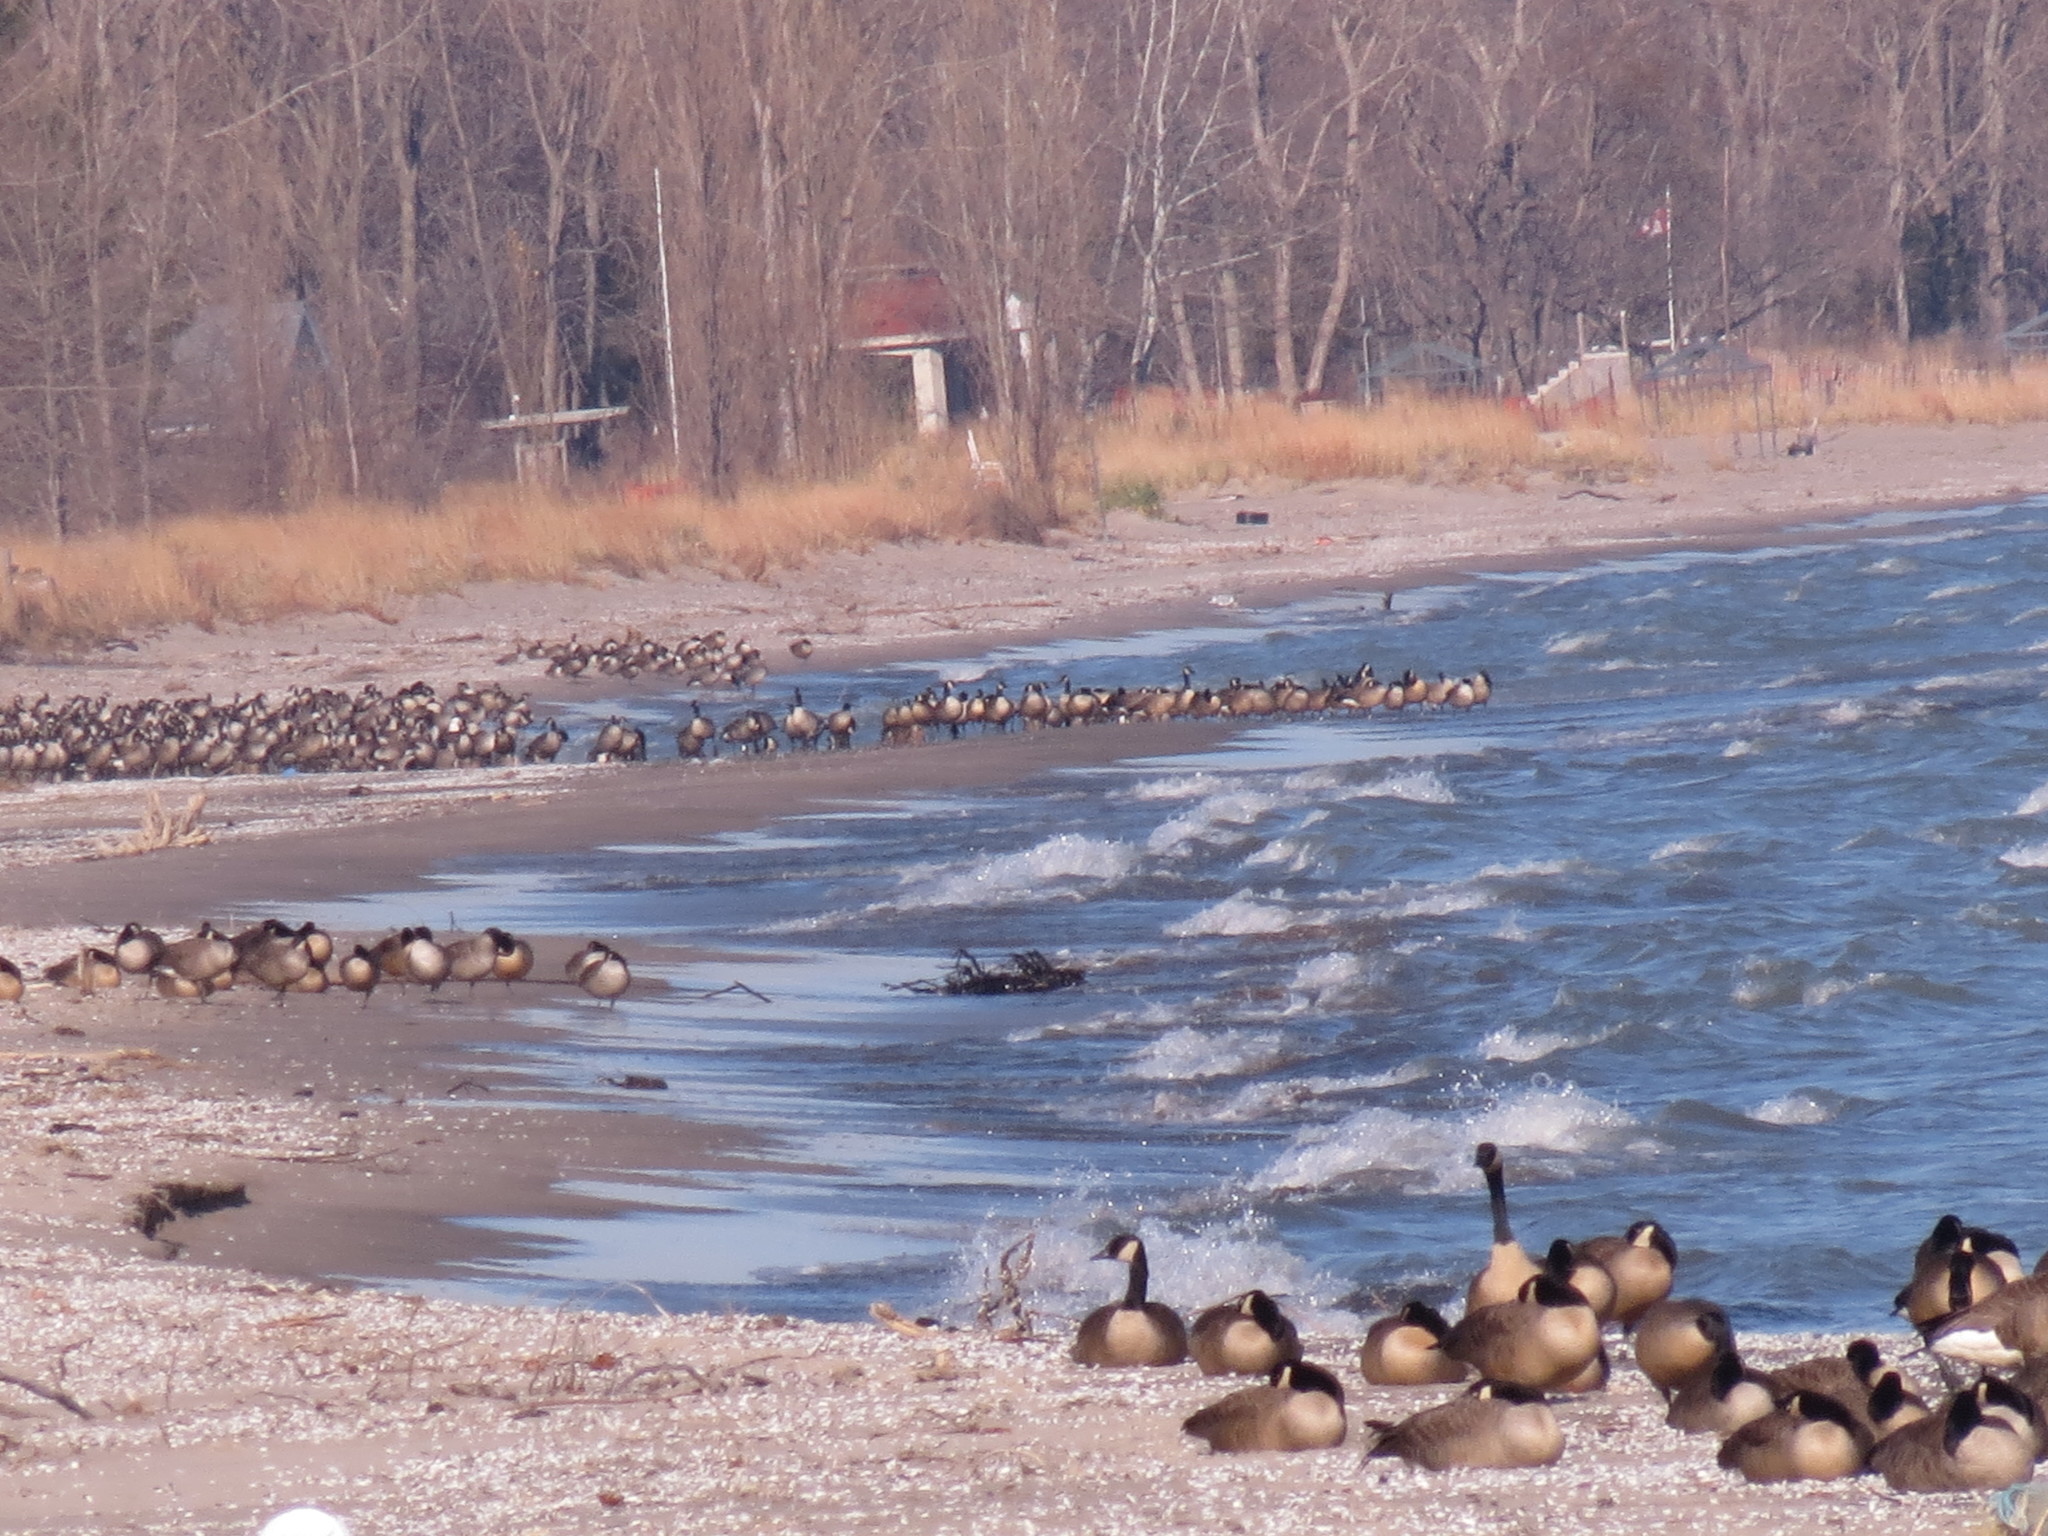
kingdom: Animalia
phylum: Chordata
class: Aves
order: Anseriformes
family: Anatidae
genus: Branta
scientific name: Branta canadensis
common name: Canada goose
